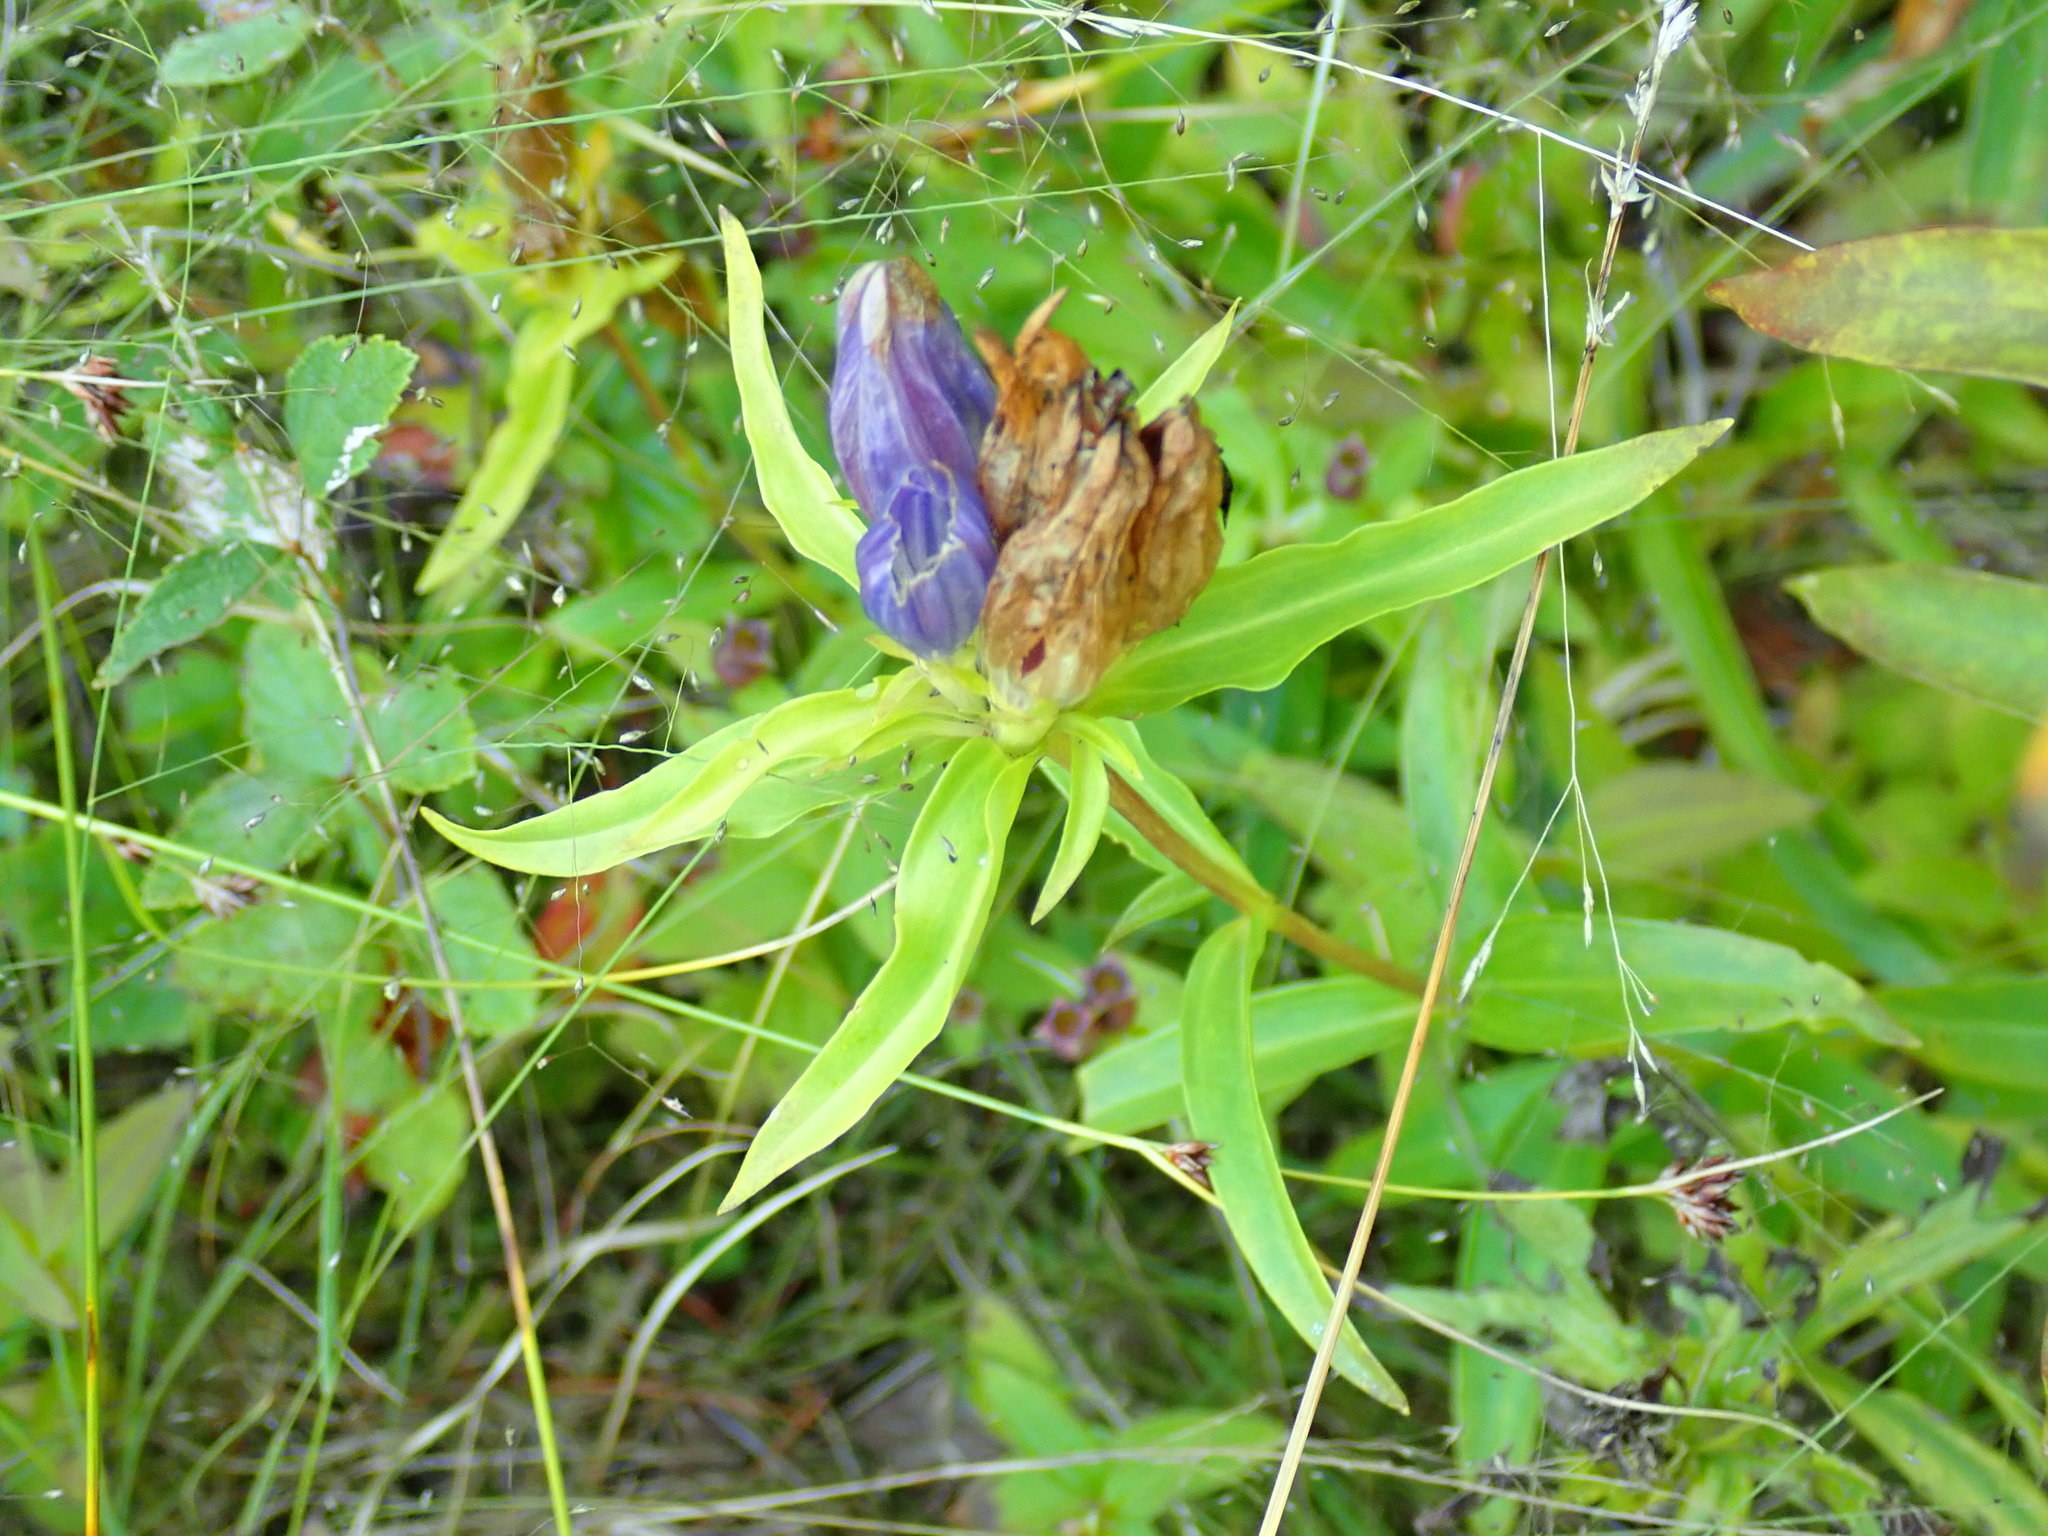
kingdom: Plantae
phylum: Tracheophyta
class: Magnoliopsida
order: Gentianales
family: Gentianaceae
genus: Gentiana
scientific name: Gentiana linearis
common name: Bastard gentian
